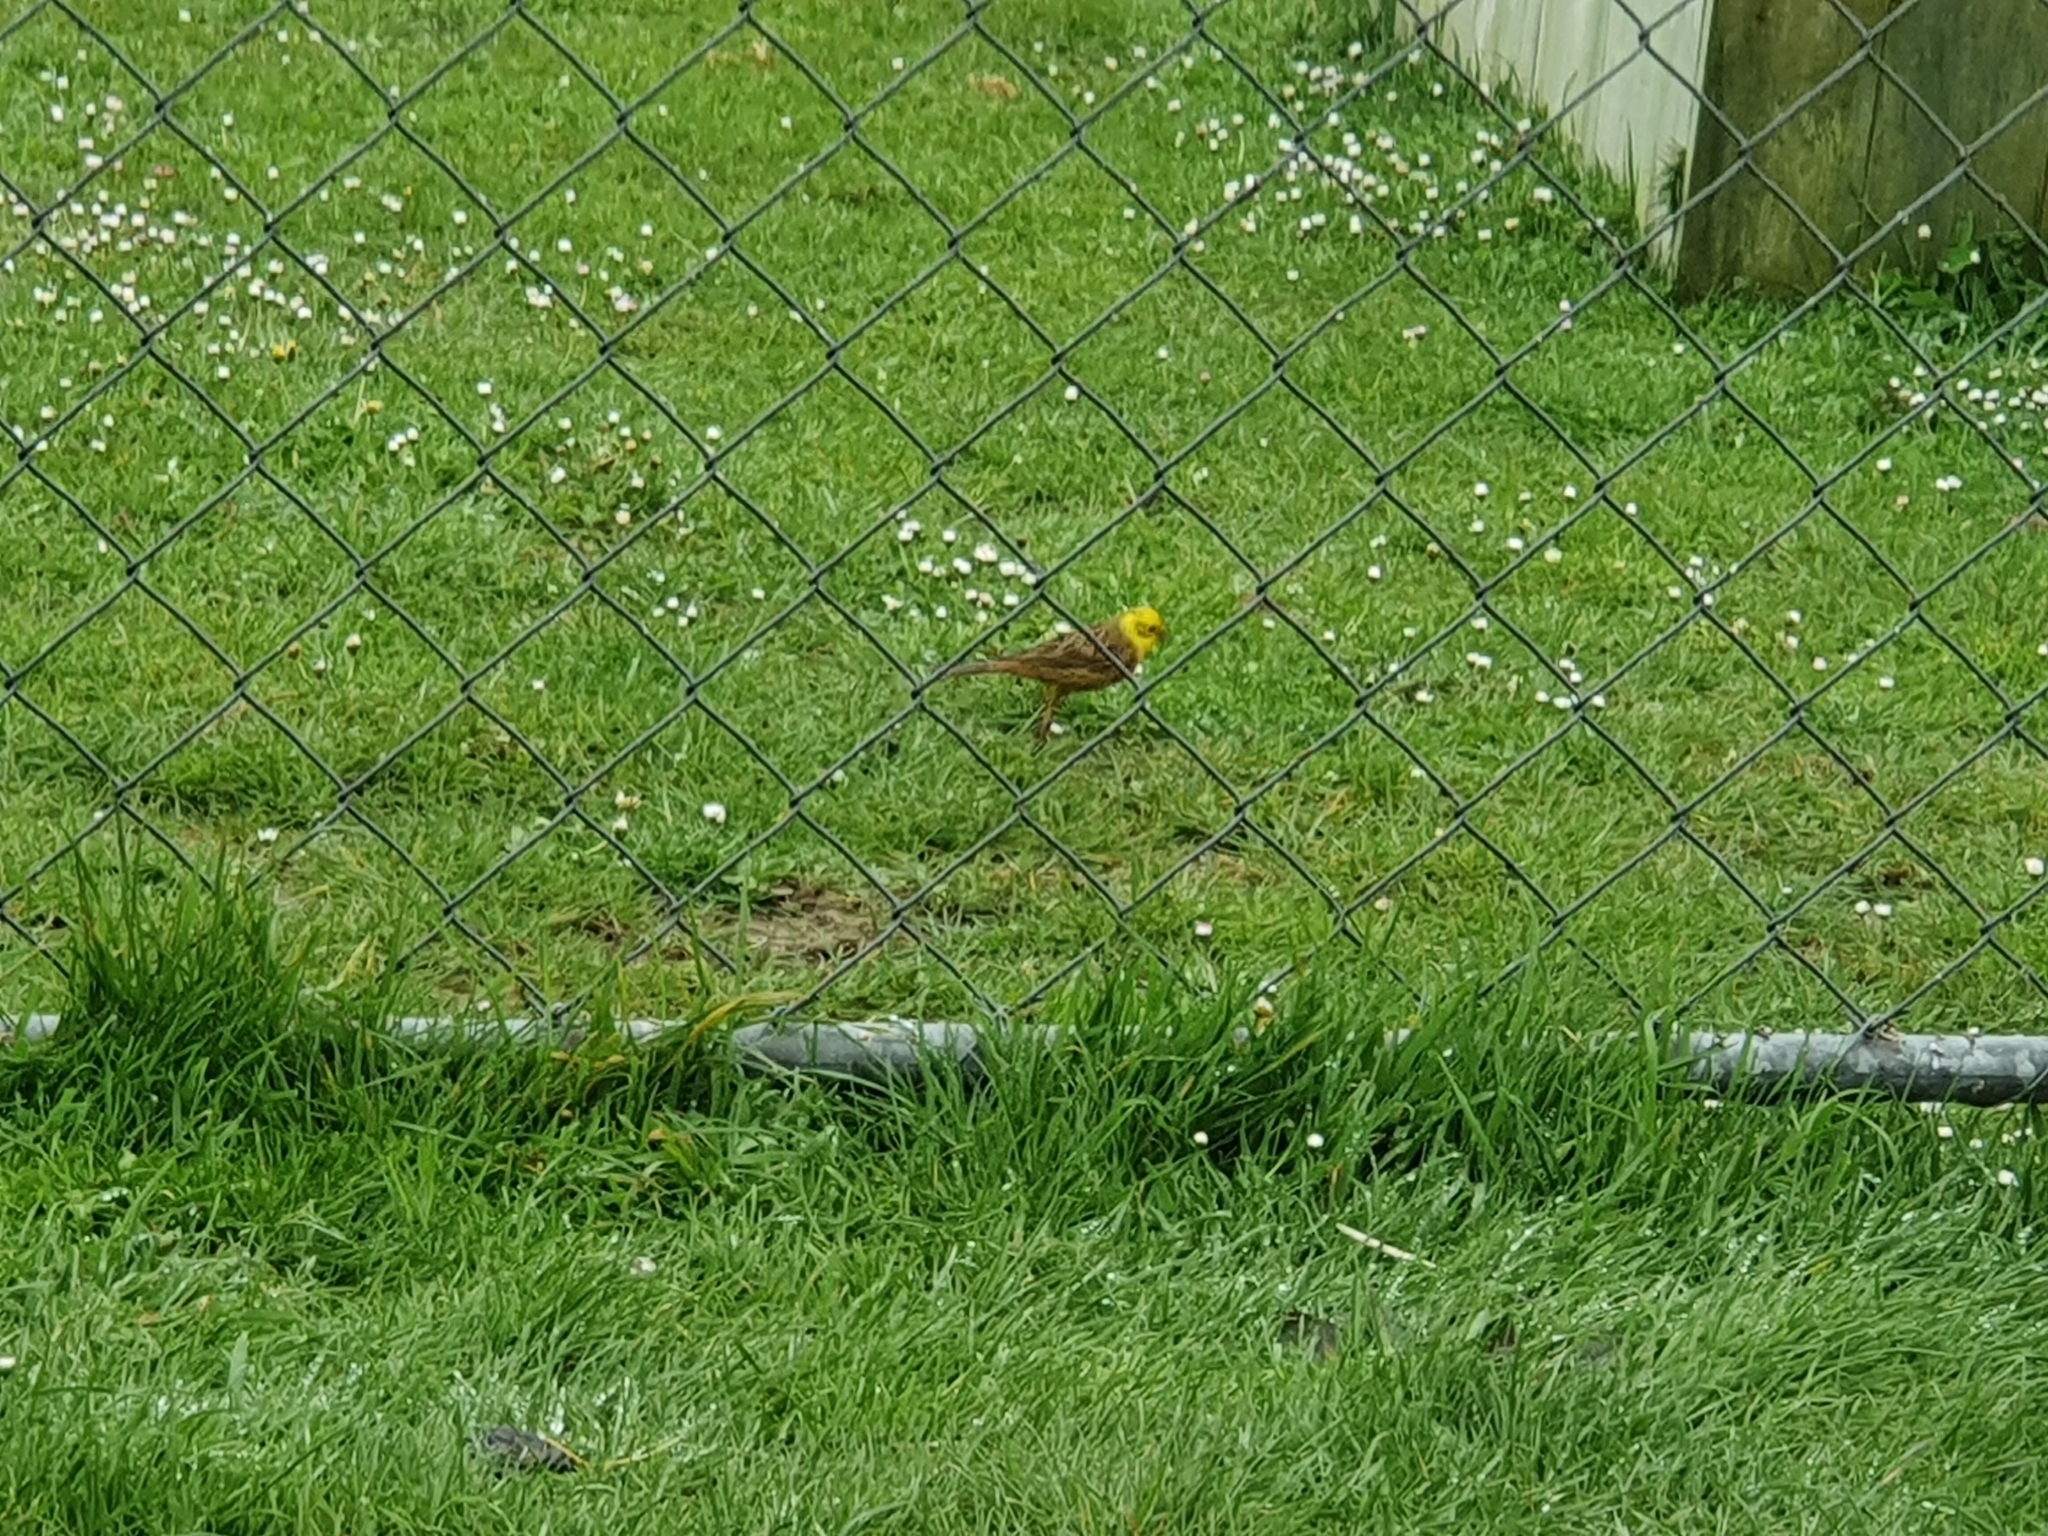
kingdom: Animalia
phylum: Chordata
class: Aves
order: Passeriformes
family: Emberizidae
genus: Emberiza
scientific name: Emberiza citrinella
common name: Yellowhammer
